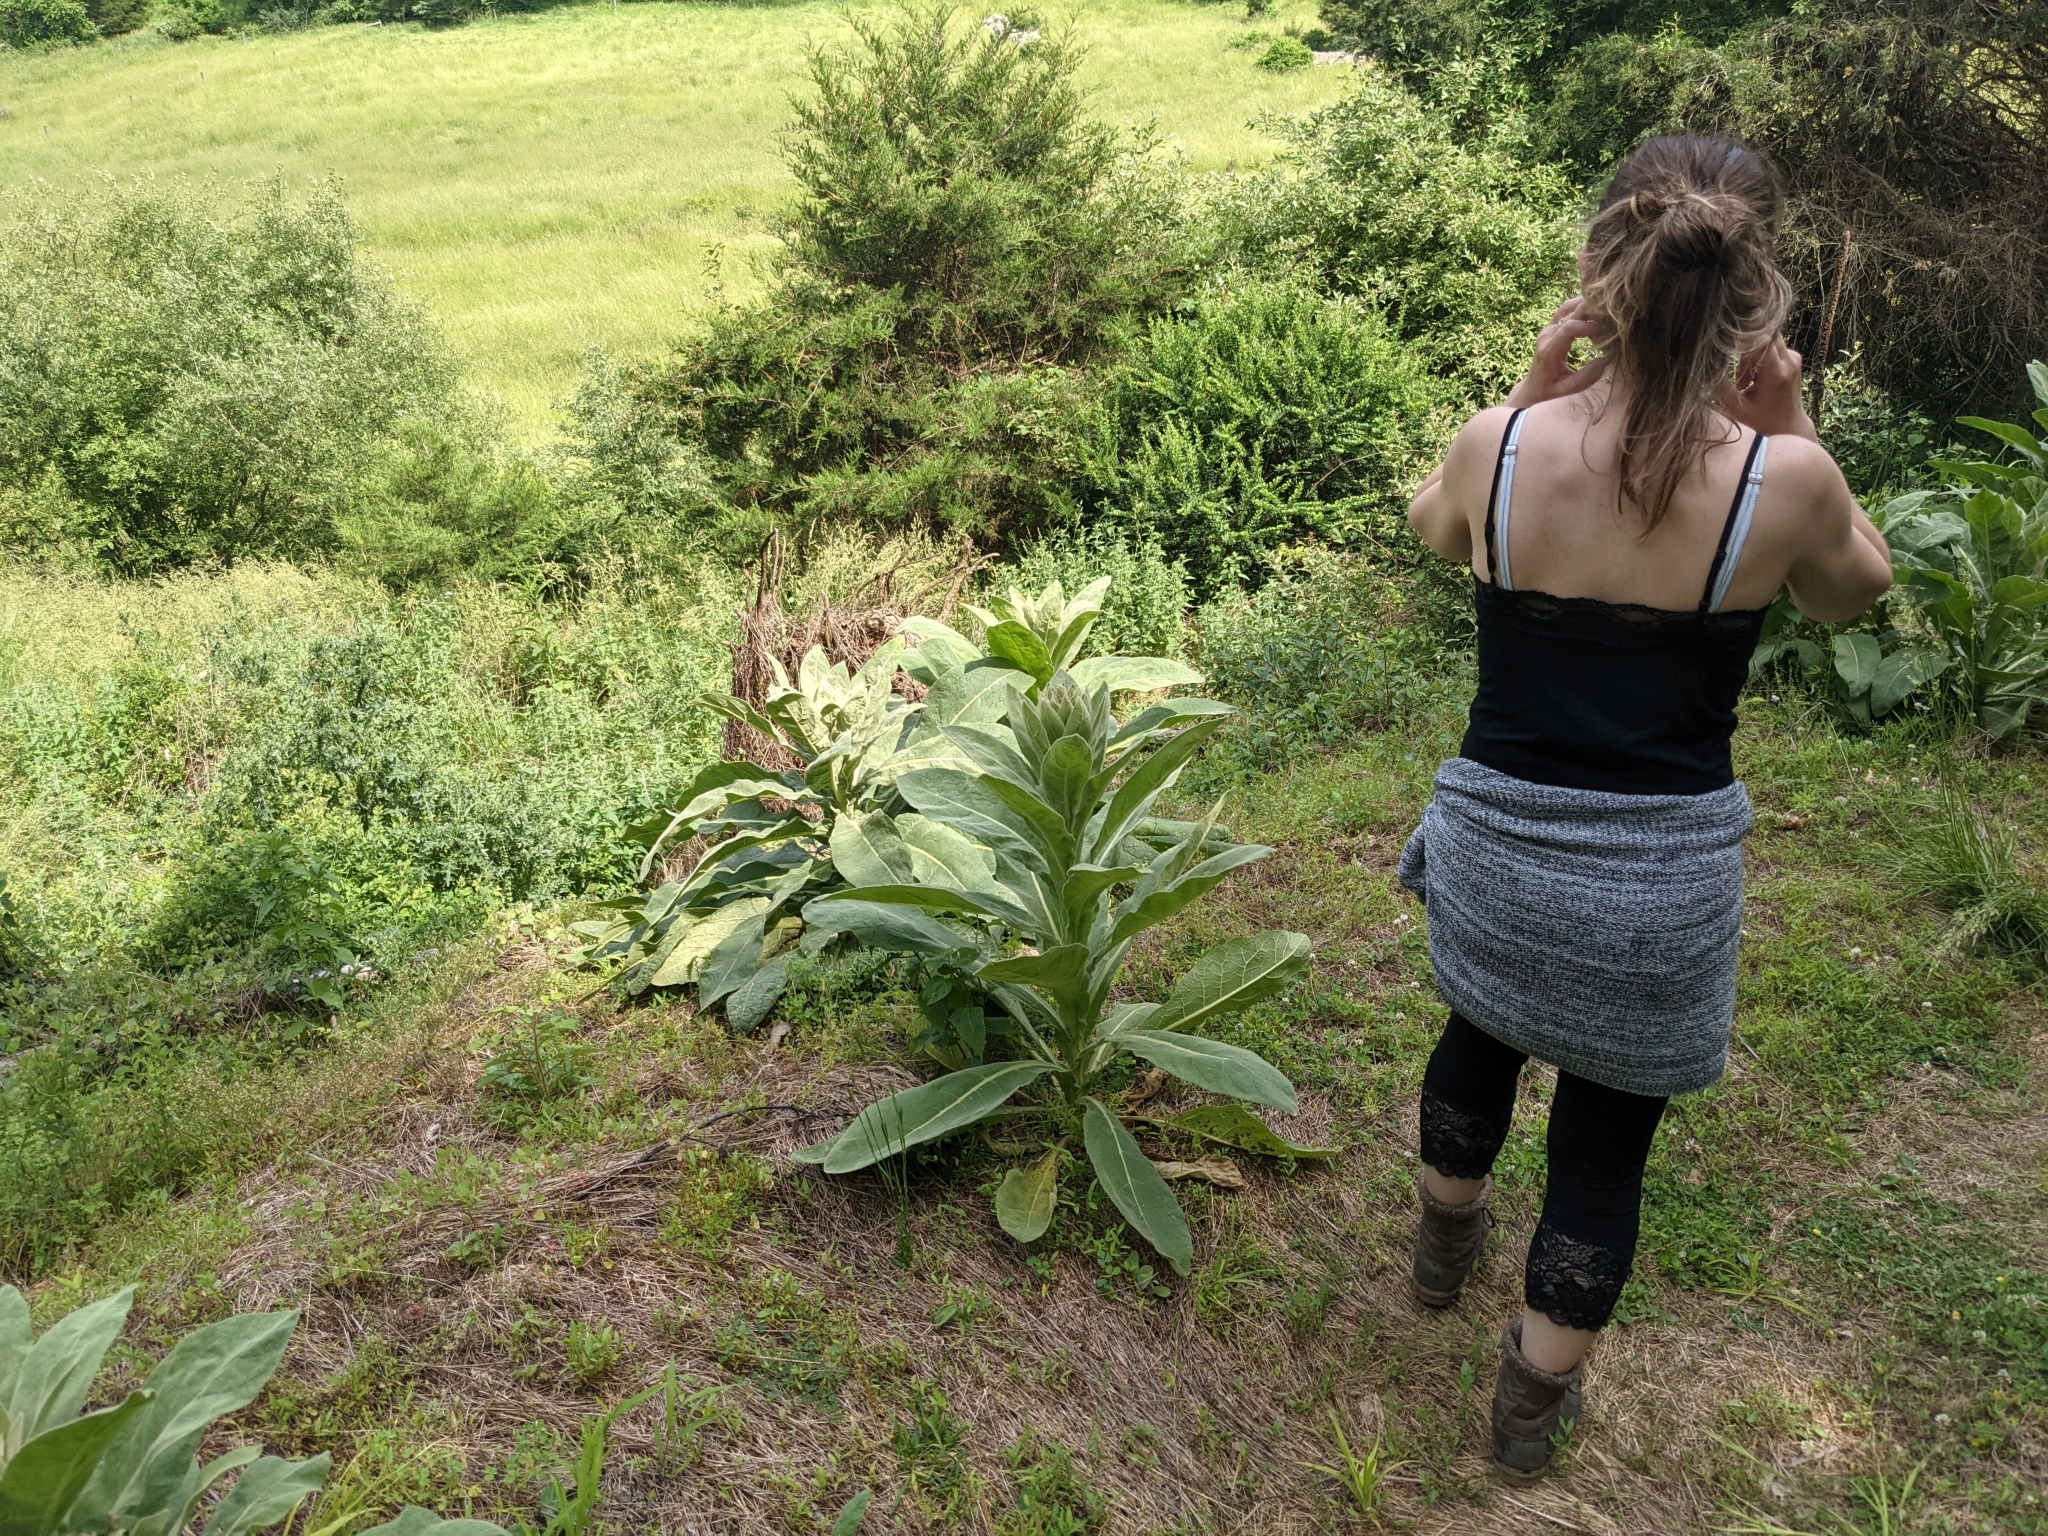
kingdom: Plantae
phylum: Tracheophyta
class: Magnoliopsida
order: Lamiales
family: Scrophulariaceae
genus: Verbascum
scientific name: Verbascum thapsus
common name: Common mullein
